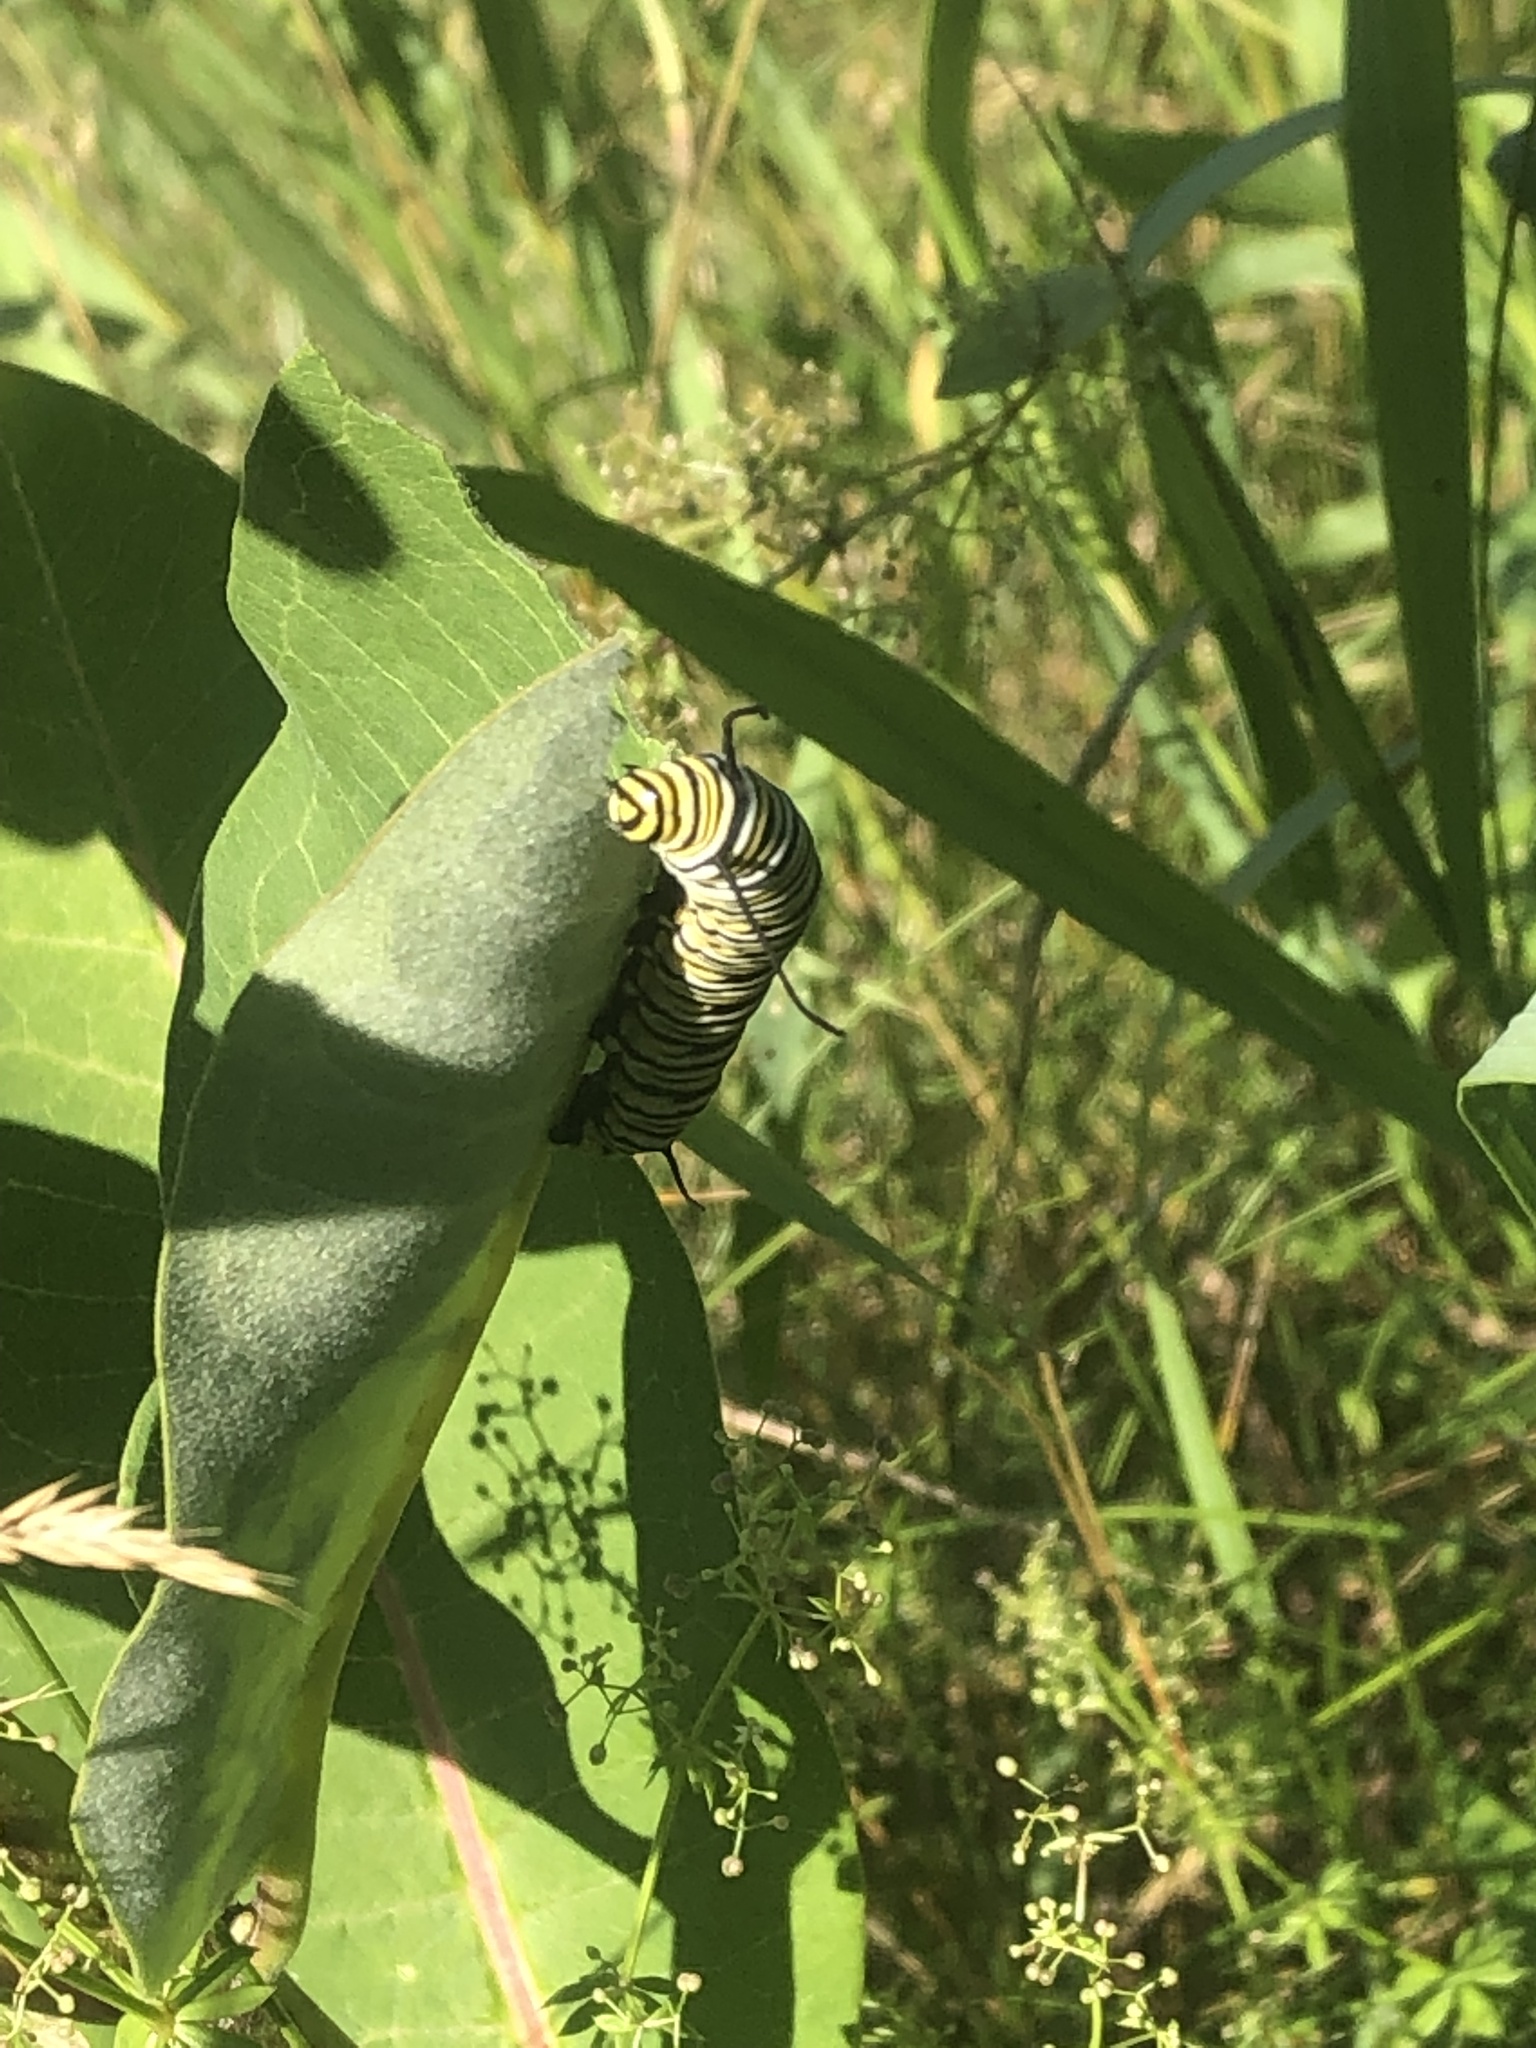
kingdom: Animalia
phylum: Arthropoda
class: Insecta
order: Lepidoptera
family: Nymphalidae
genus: Danaus
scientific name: Danaus plexippus
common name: Monarch
